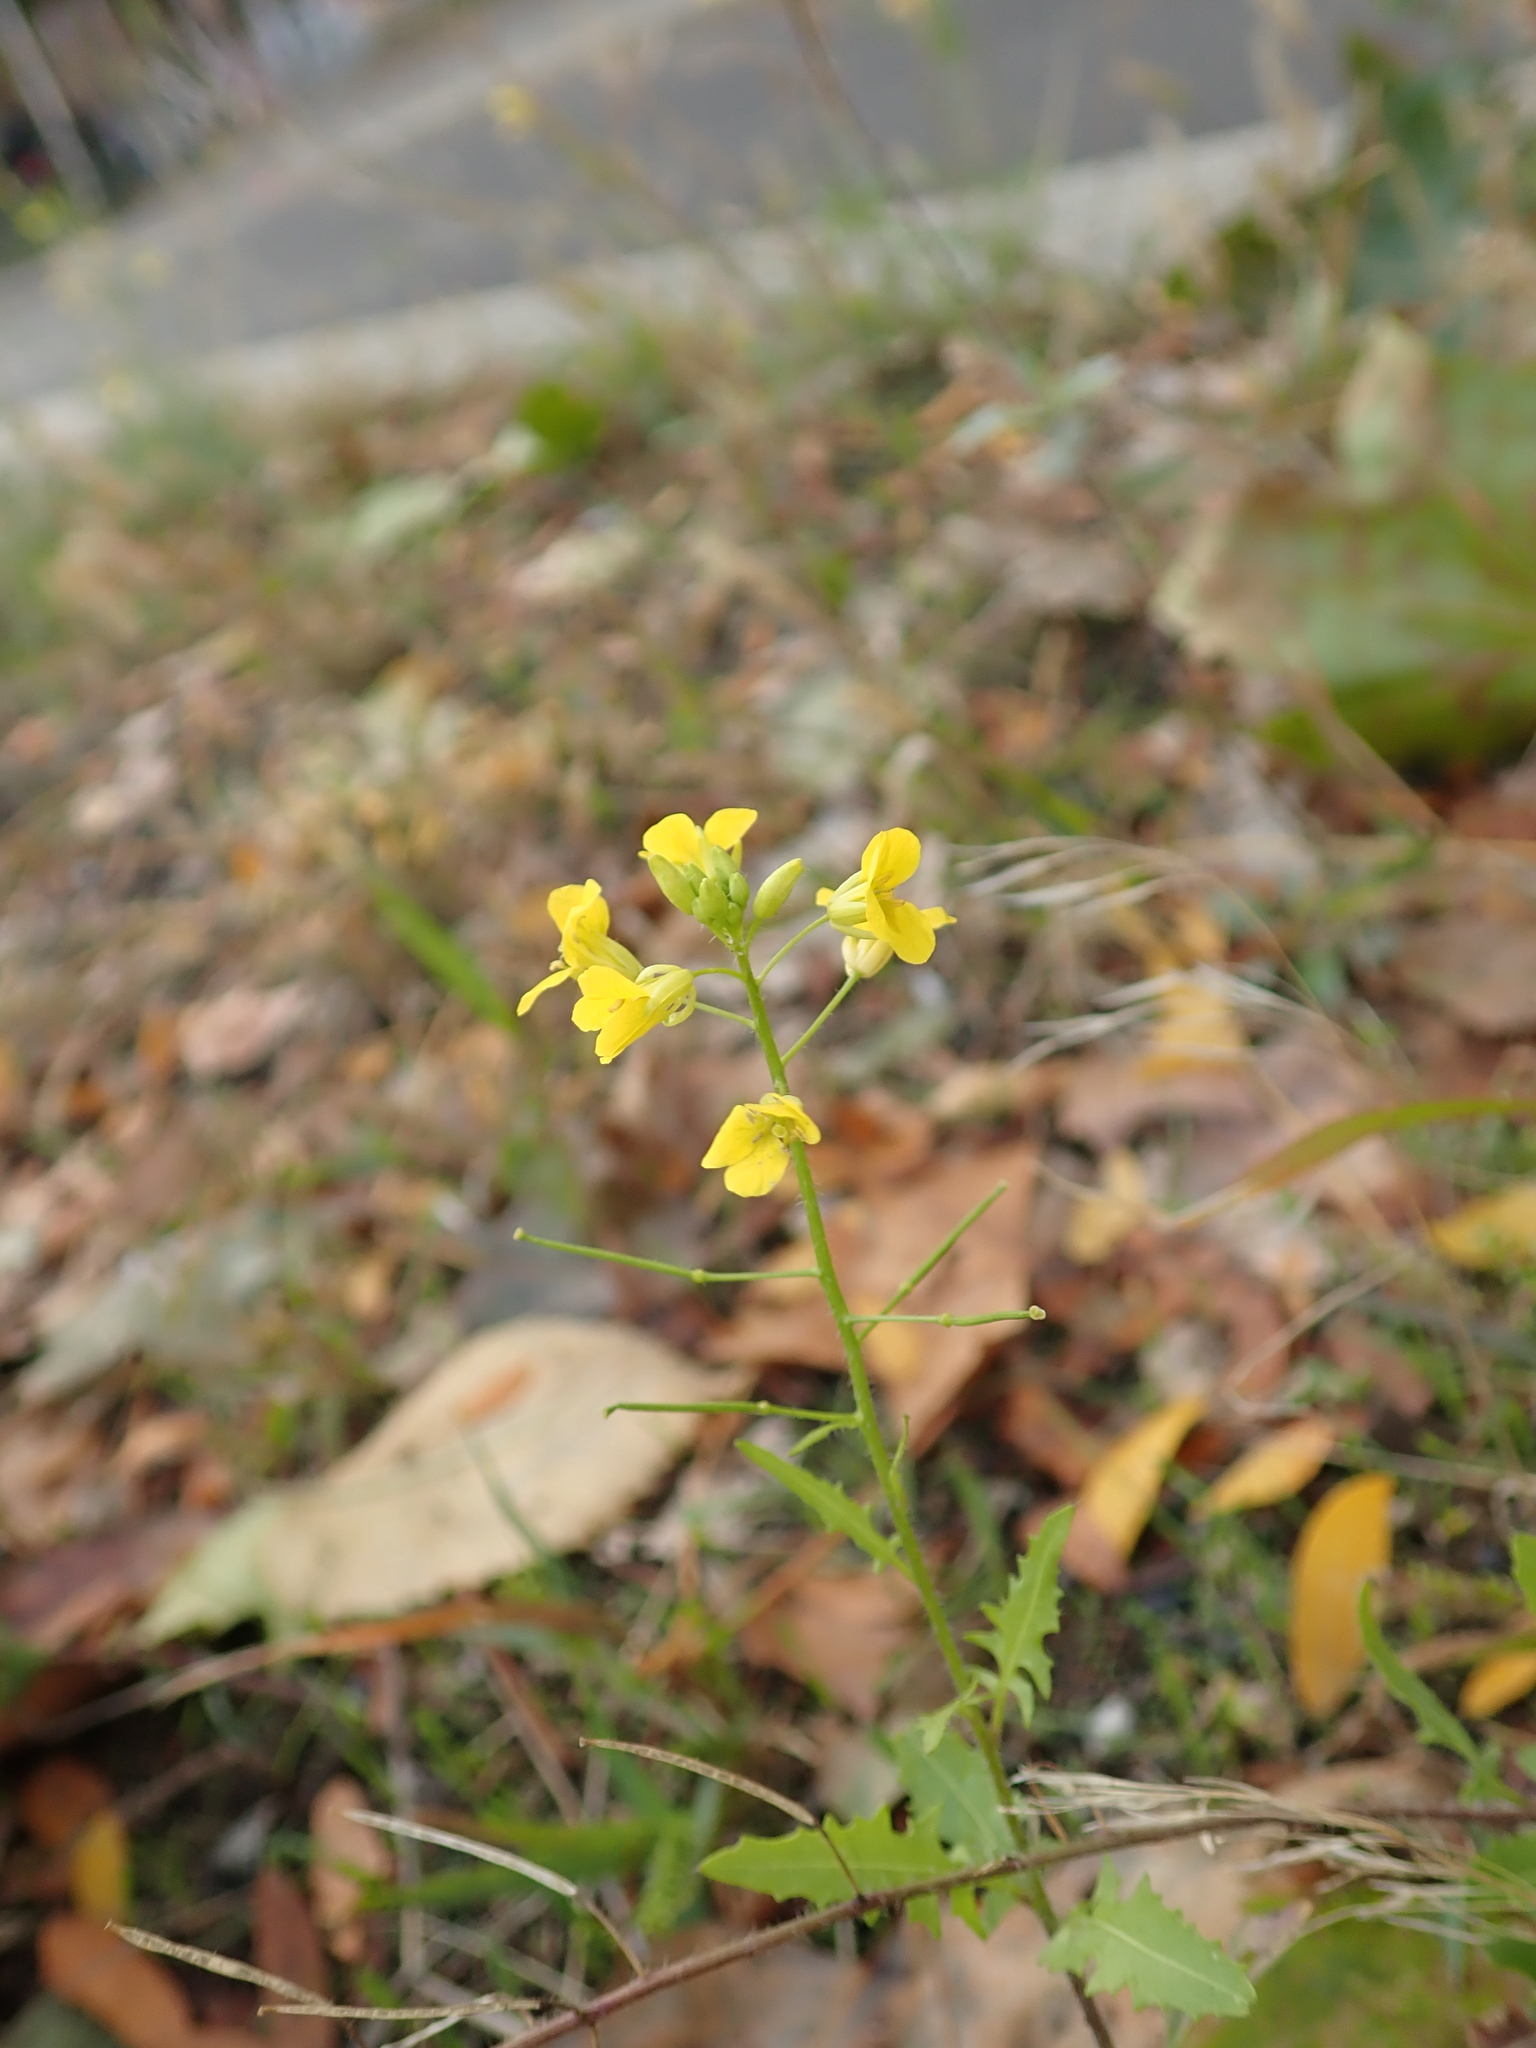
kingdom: Plantae
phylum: Tracheophyta
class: Magnoliopsida
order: Brassicales
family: Brassicaceae
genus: Sisymbrium
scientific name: Sisymbrium loeselii
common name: False london-rocket
